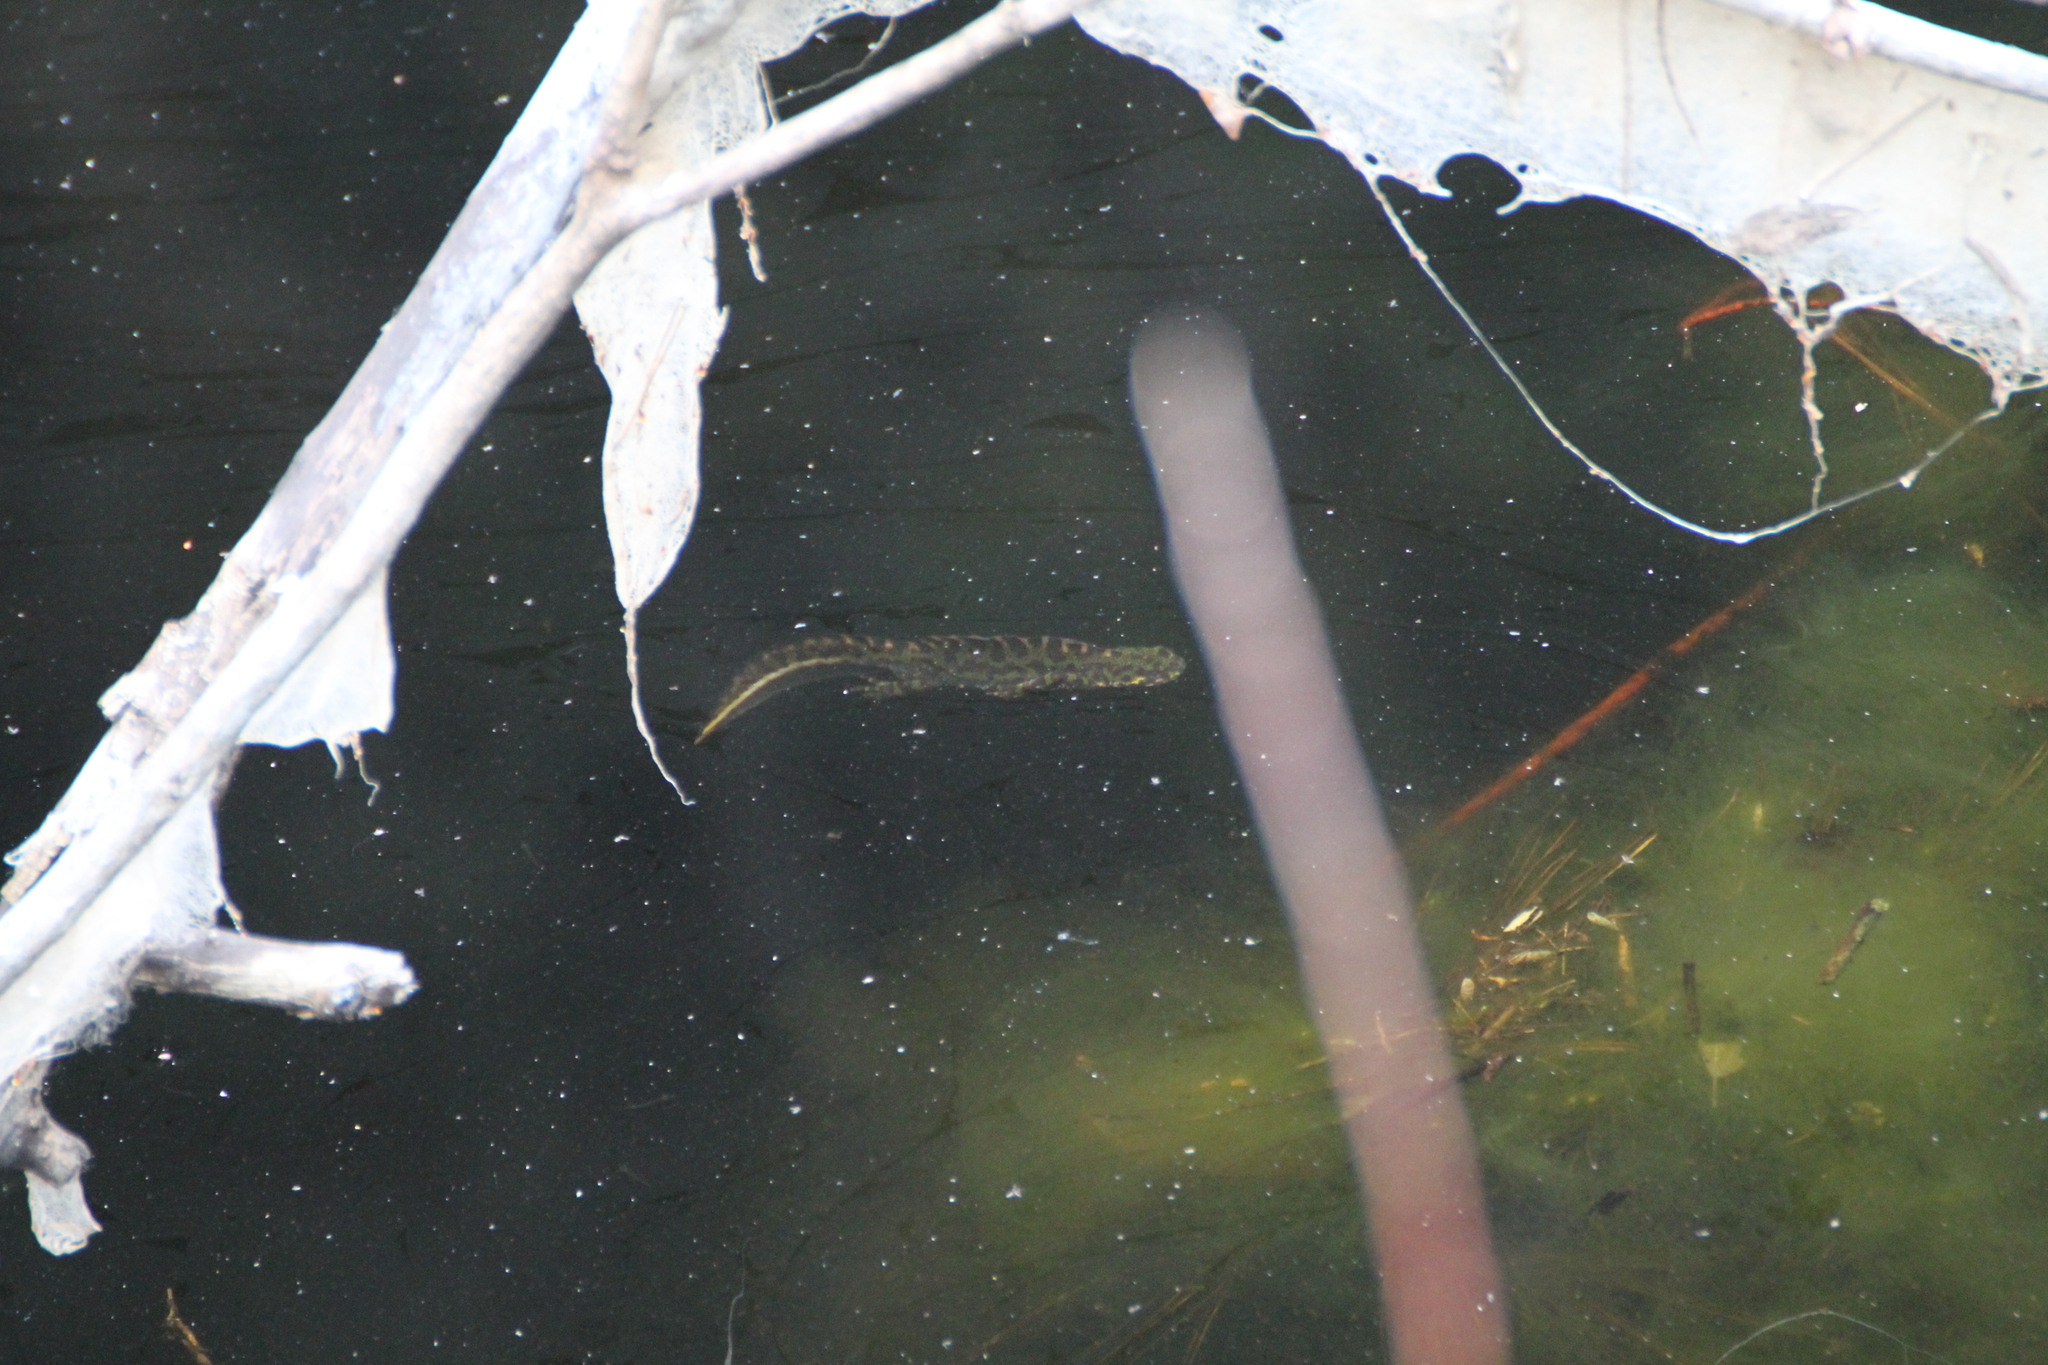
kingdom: Animalia
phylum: Chordata
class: Amphibia
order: Caudata
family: Salamandridae
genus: Triturus
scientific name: Triturus marmoratus
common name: Marbled newt
